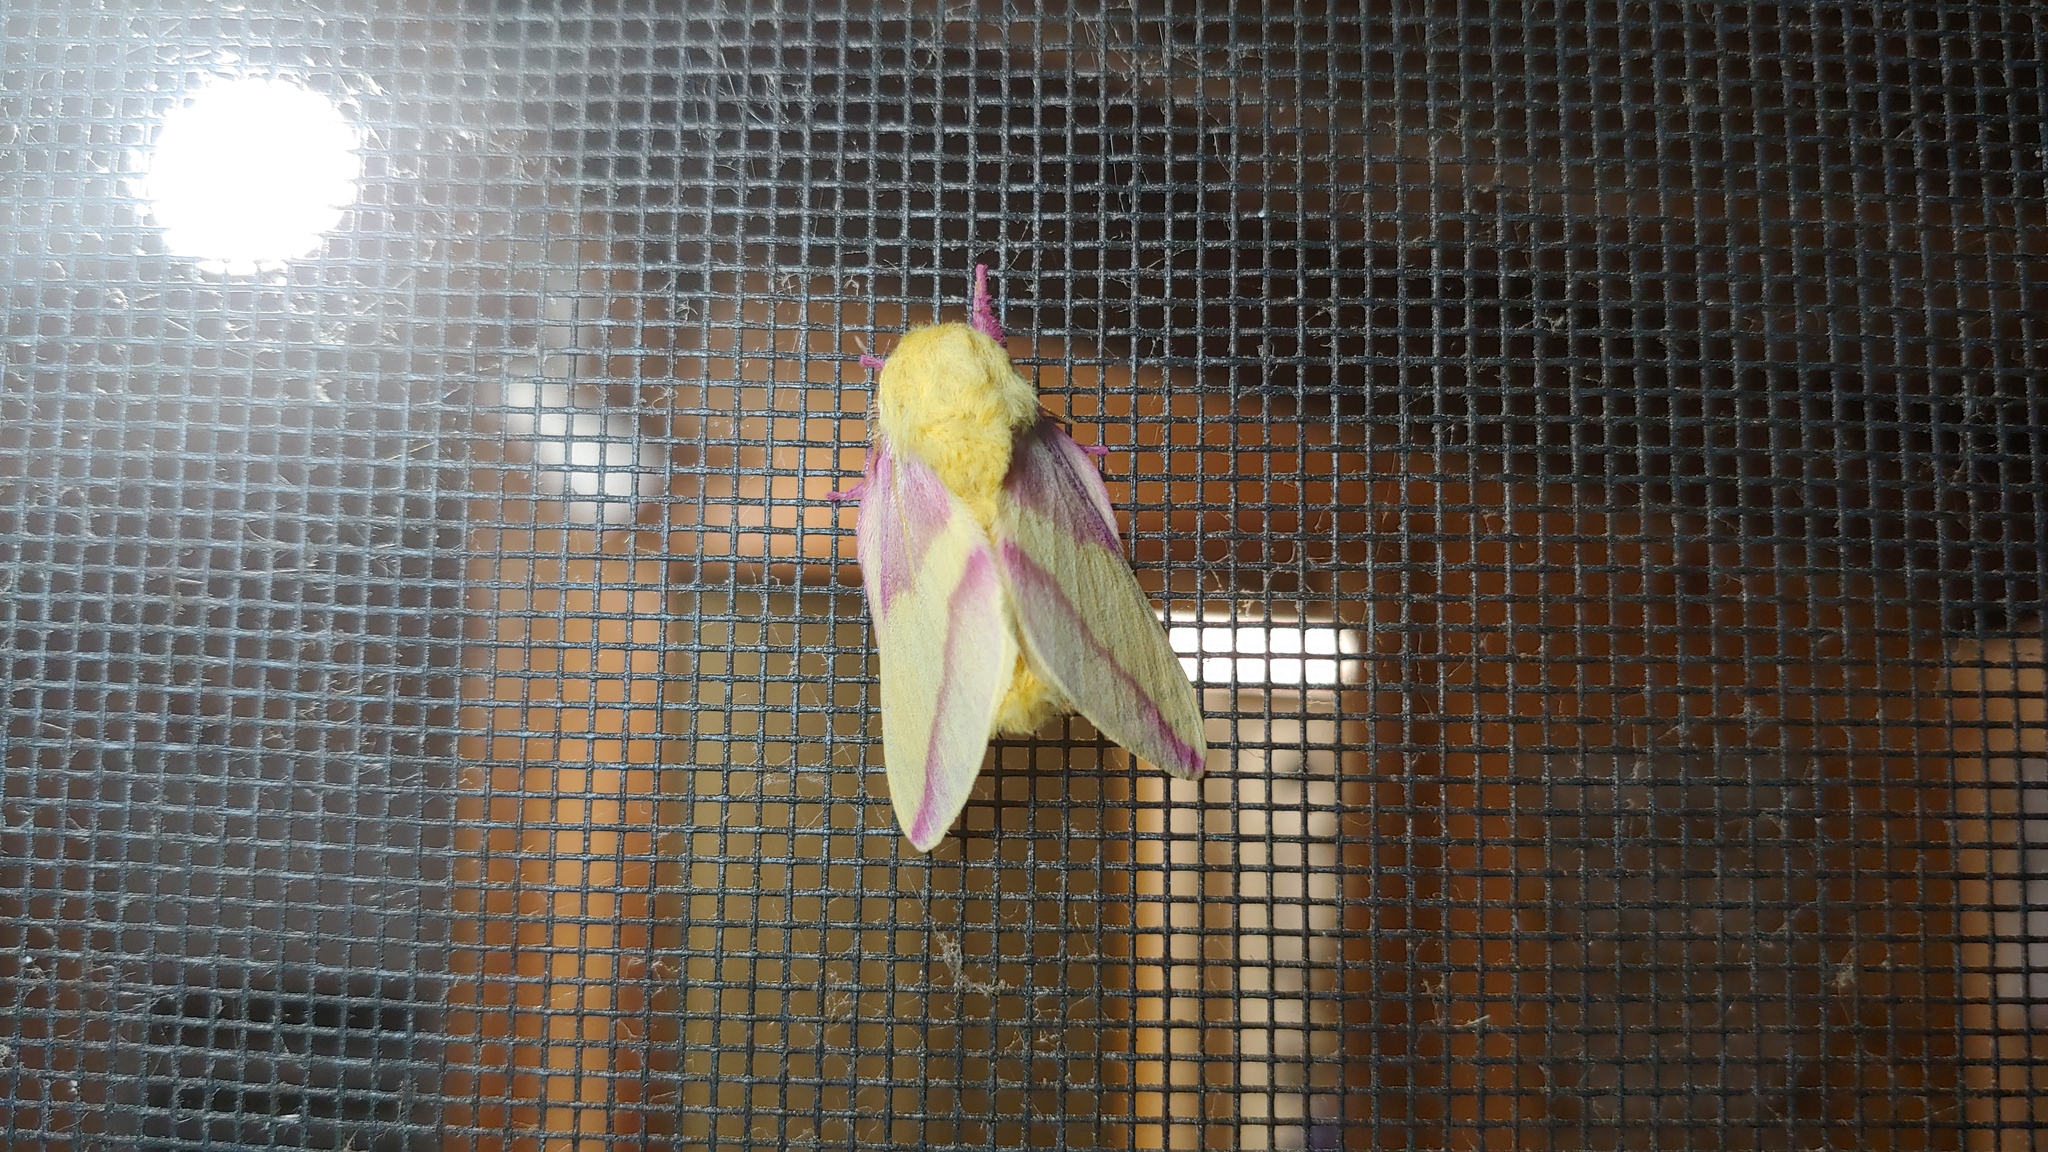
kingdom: Animalia
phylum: Arthropoda
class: Insecta
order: Lepidoptera
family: Saturniidae
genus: Dryocampa
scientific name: Dryocampa rubicunda
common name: Rosy maple moth
